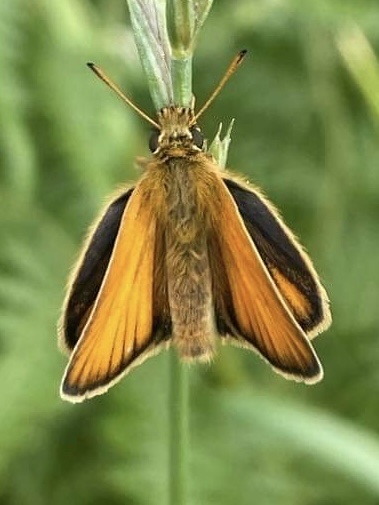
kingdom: Animalia
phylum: Arthropoda
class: Insecta
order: Lepidoptera
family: Hesperiidae
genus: Thymelicus
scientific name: Thymelicus lineola
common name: Essex skipper
